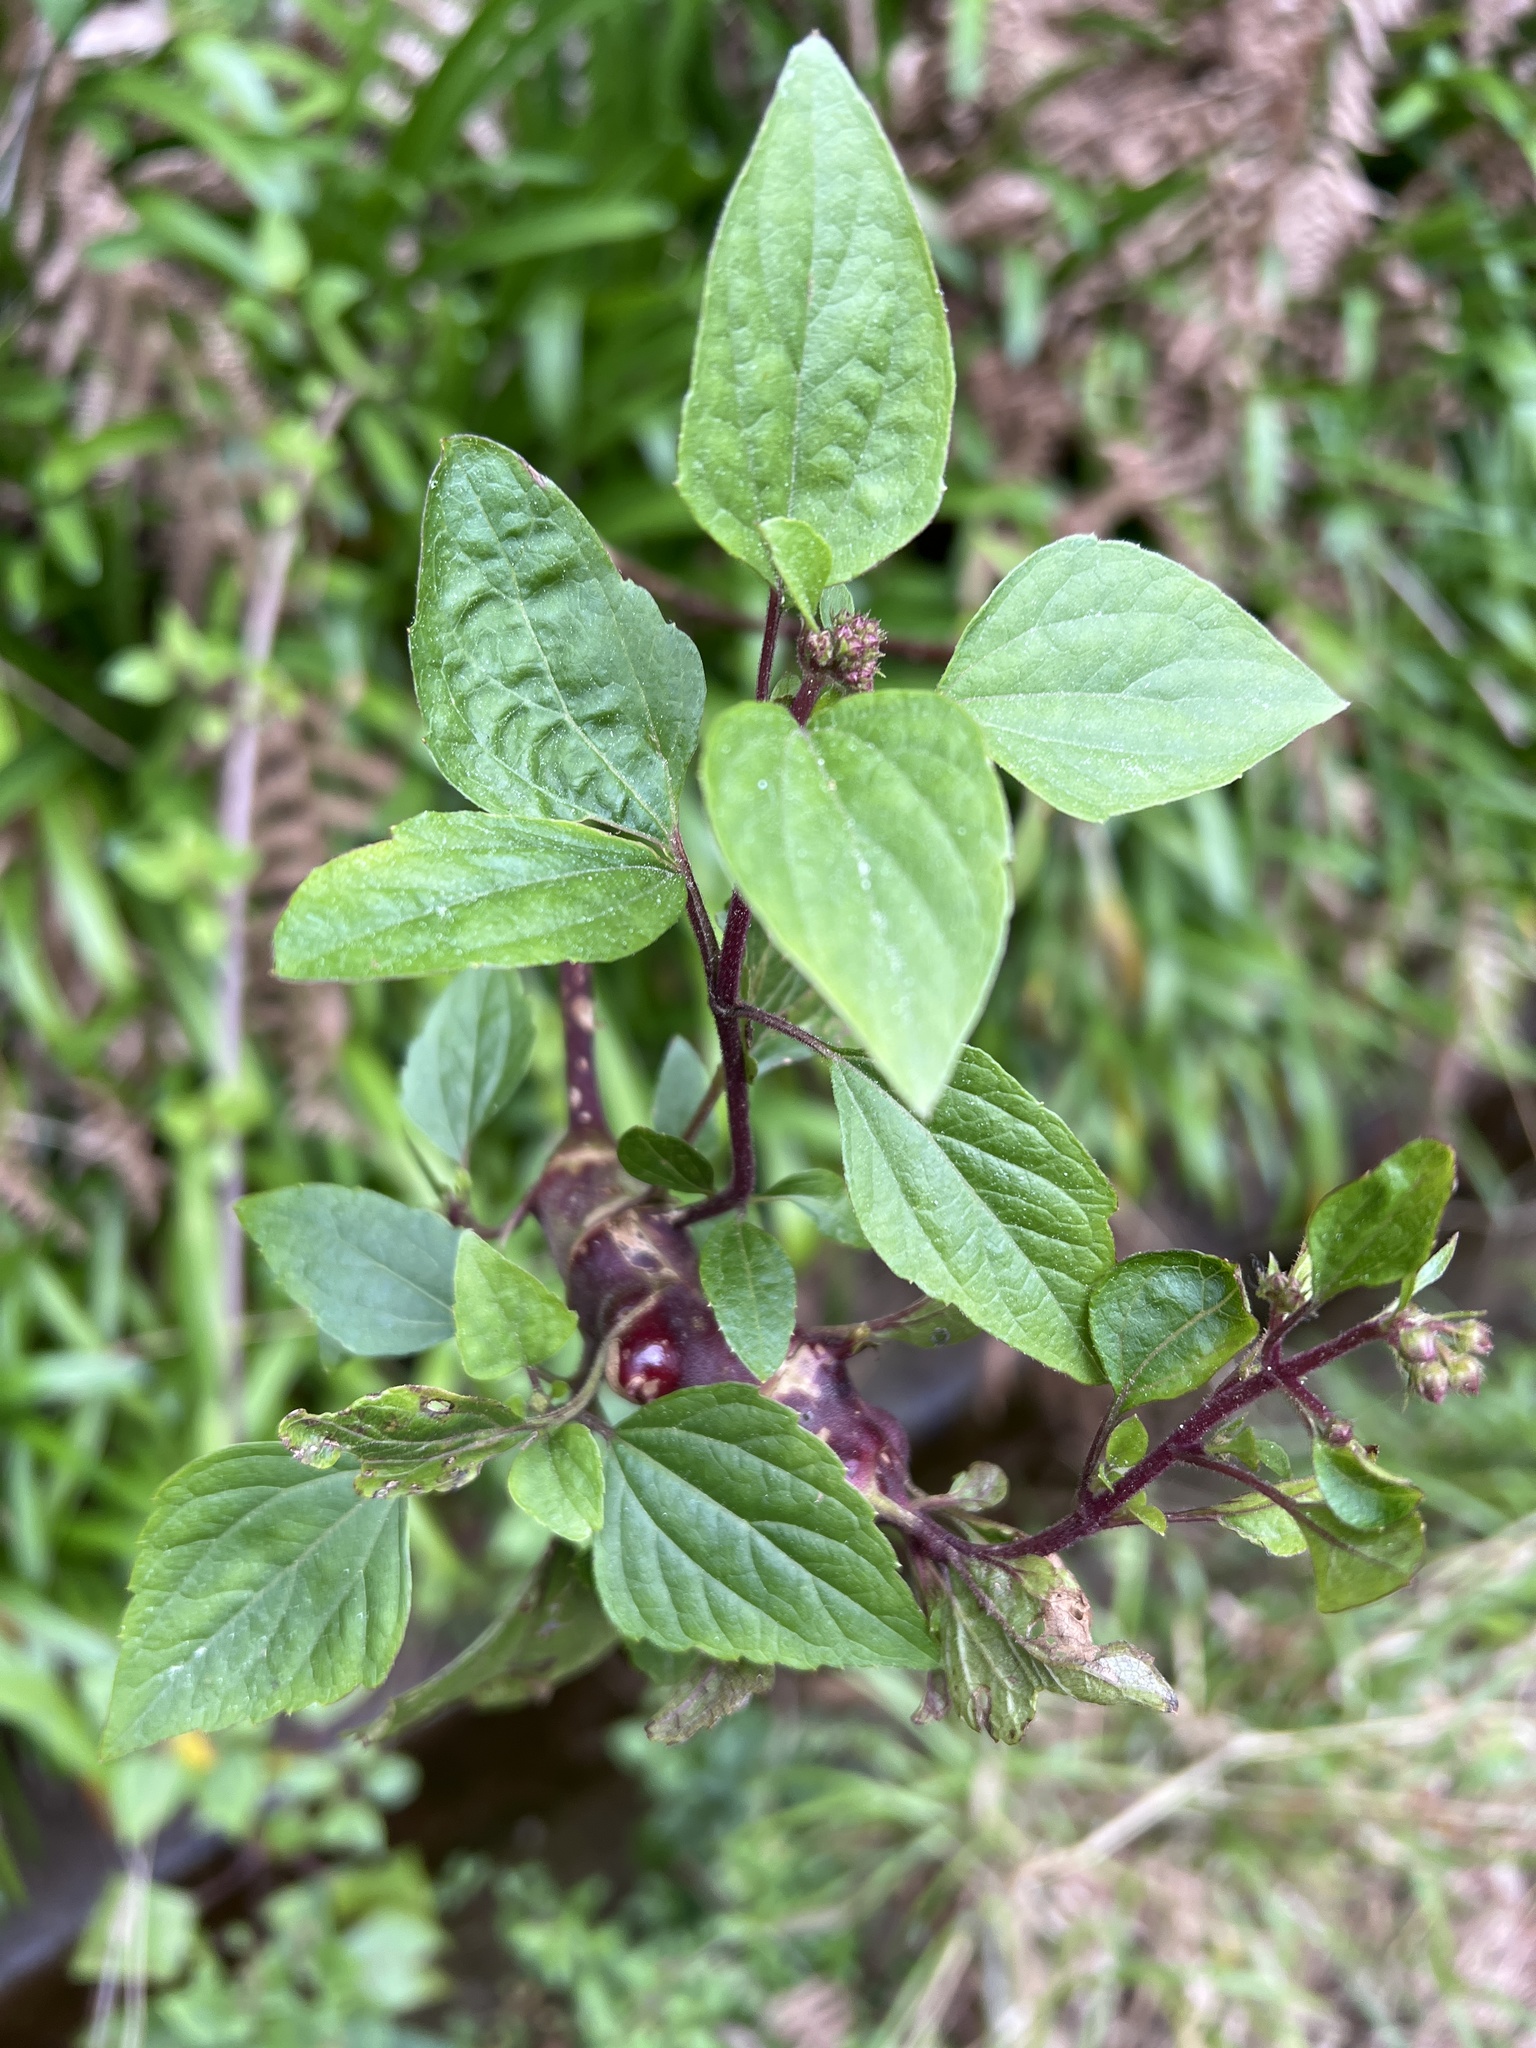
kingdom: Plantae
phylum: Tracheophyta
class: Magnoliopsida
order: Asterales
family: Asteraceae
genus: Ageratina
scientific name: Ageratina adenophora
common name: Sticky snakeroot
